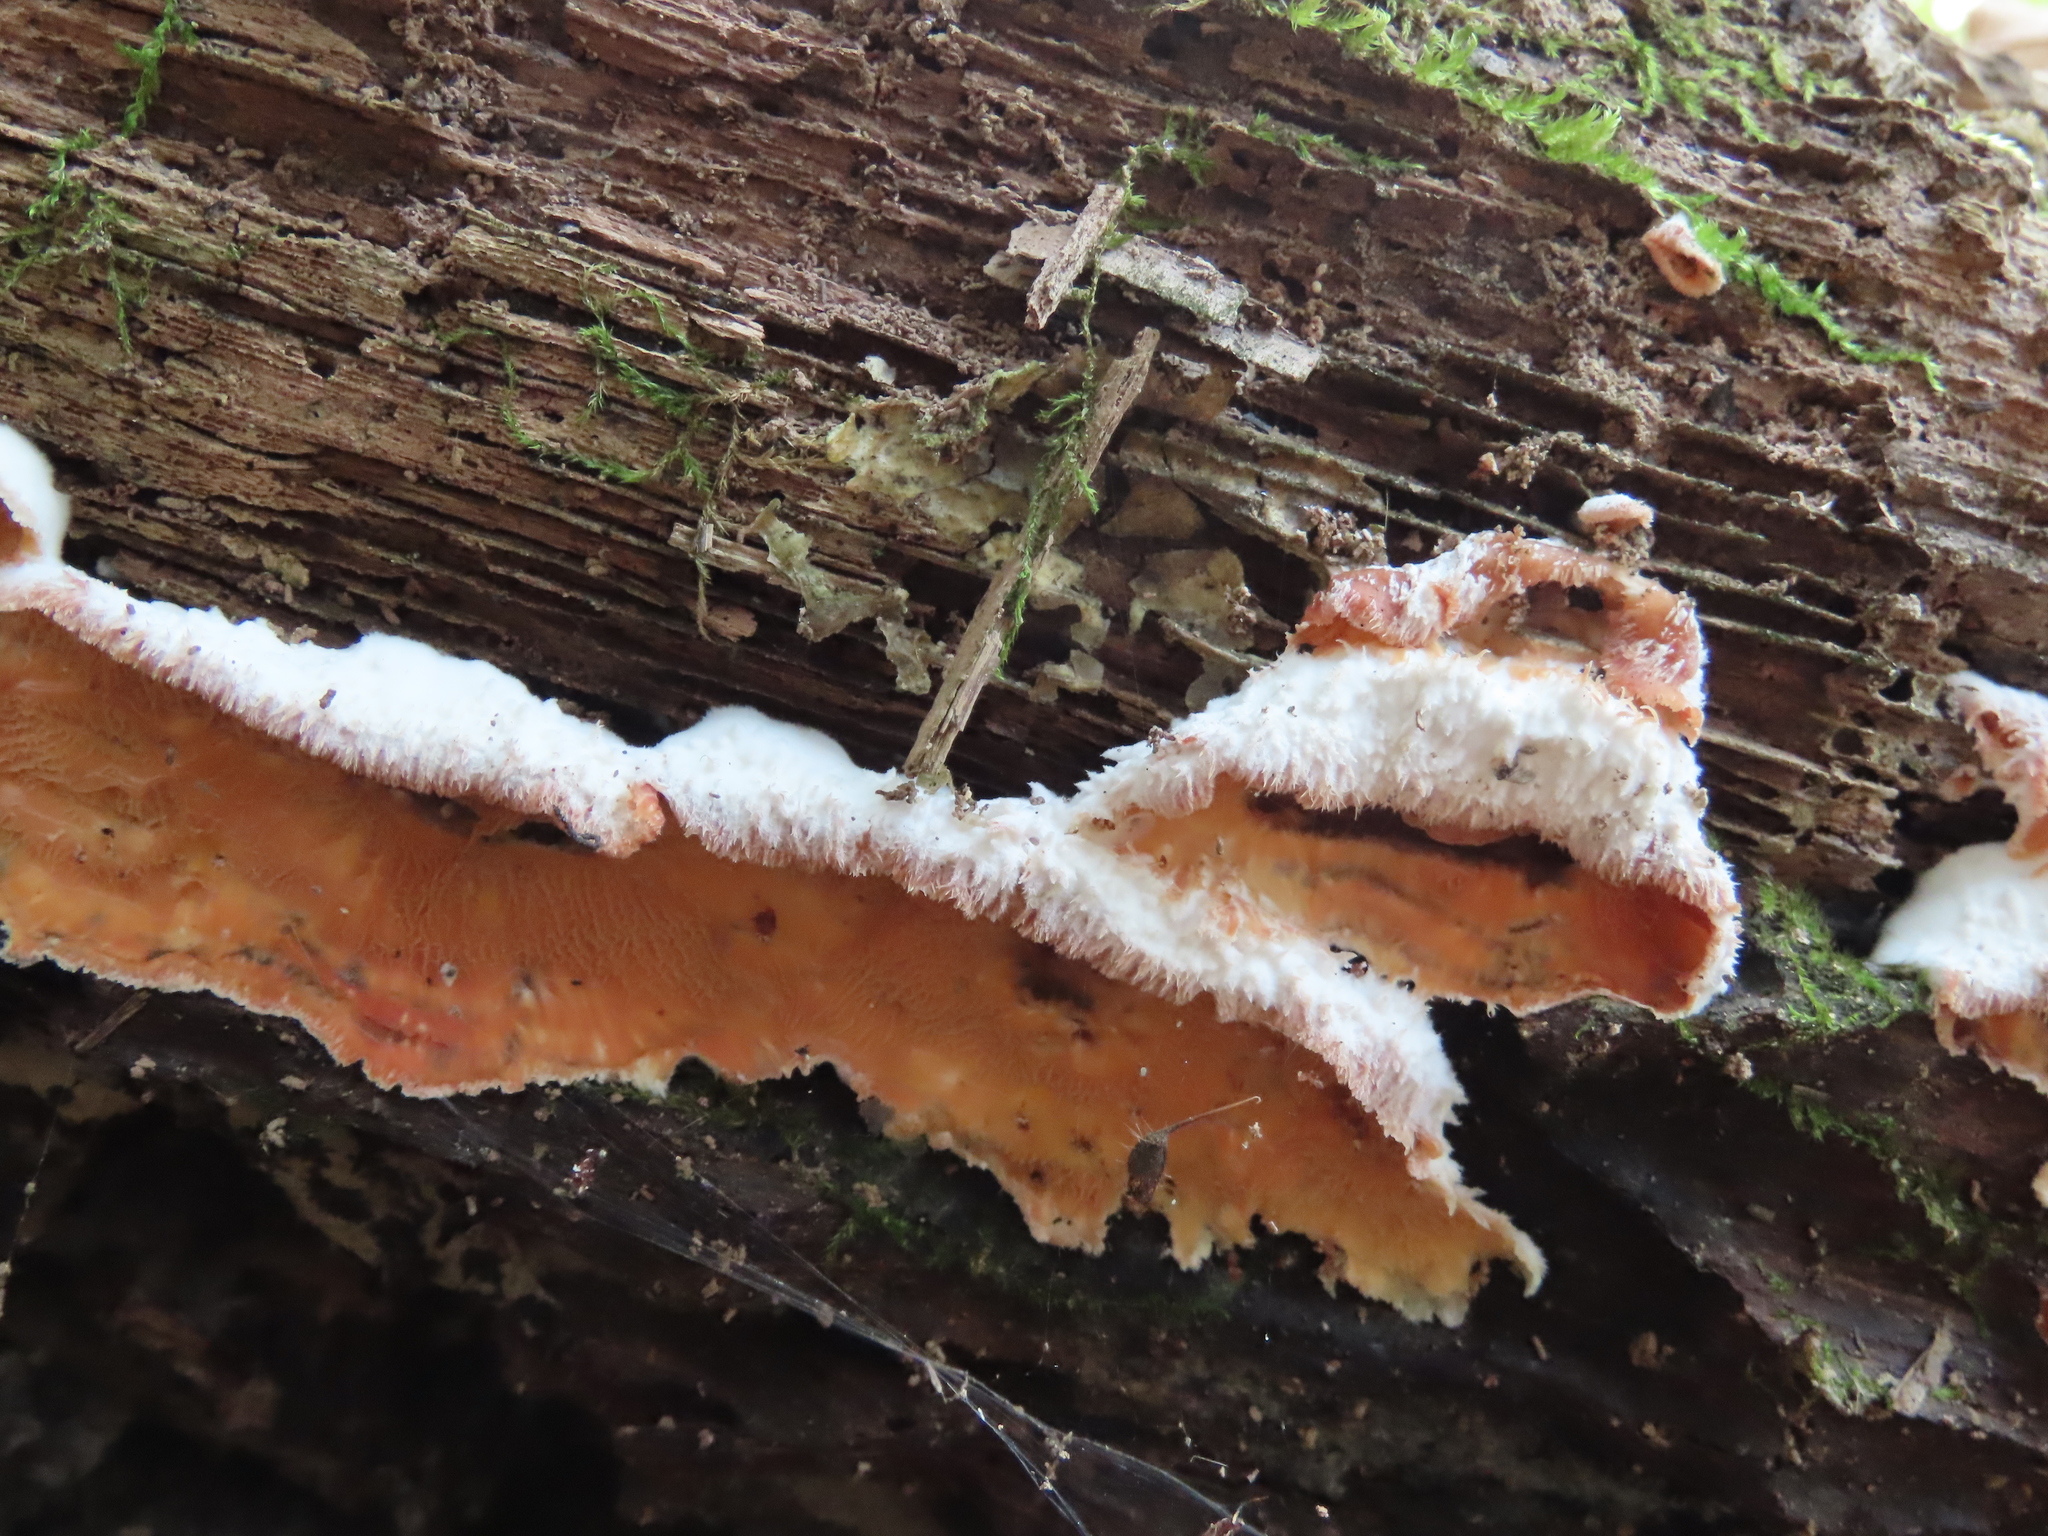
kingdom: Fungi
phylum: Basidiomycota
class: Agaricomycetes
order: Polyporales
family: Meruliaceae
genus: Phlebia
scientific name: Phlebia tremellosa
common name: Jelly rot
